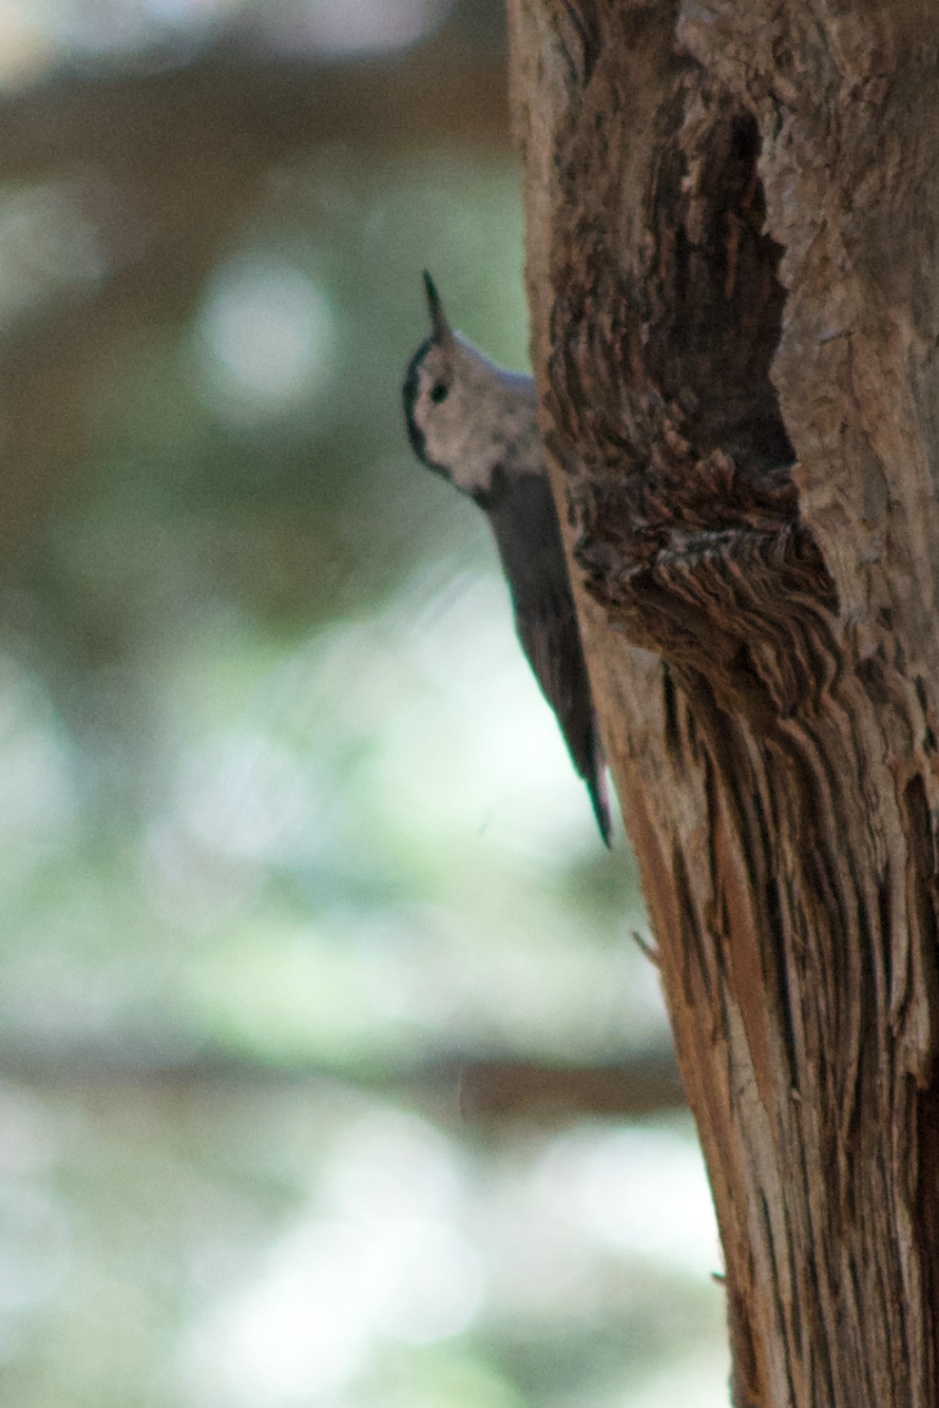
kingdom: Animalia
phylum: Chordata
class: Aves
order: Passeriformes
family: Sittidae
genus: Sitta
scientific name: Sitta carolinensis
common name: White-breasted nuthatch
